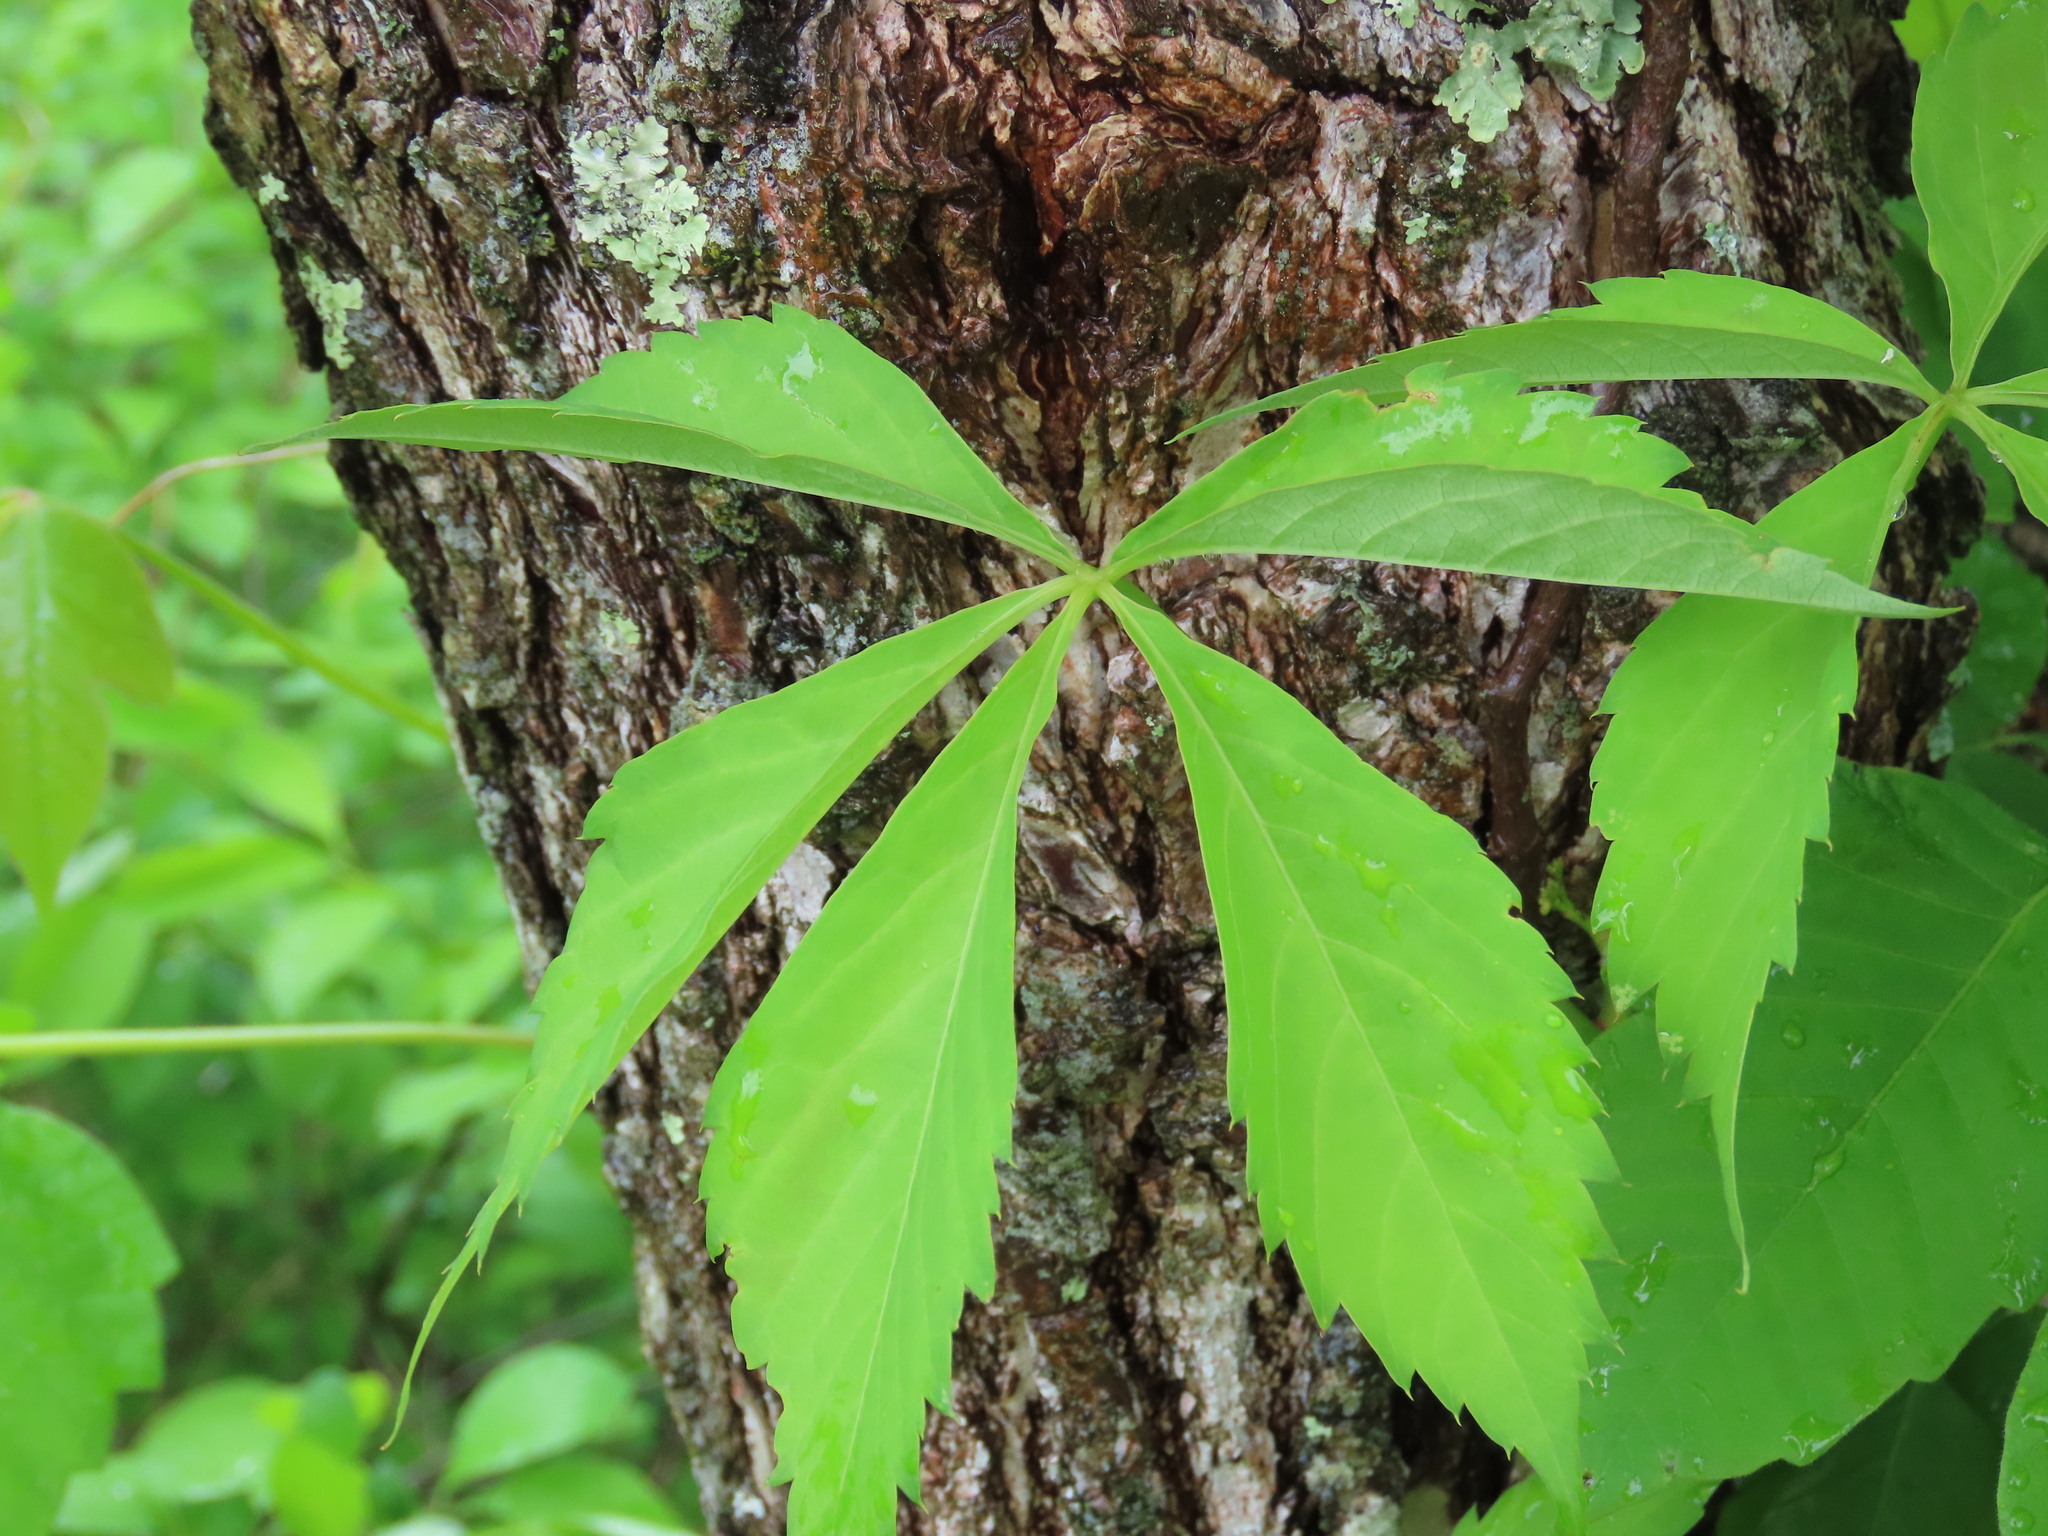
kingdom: Plantae
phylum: Tracheophyta
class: Magnoliopsida
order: Vitales
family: Vitaceae
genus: Parthenocissus
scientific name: Parthenocissus quinquefolia
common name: Virginia-creeper
